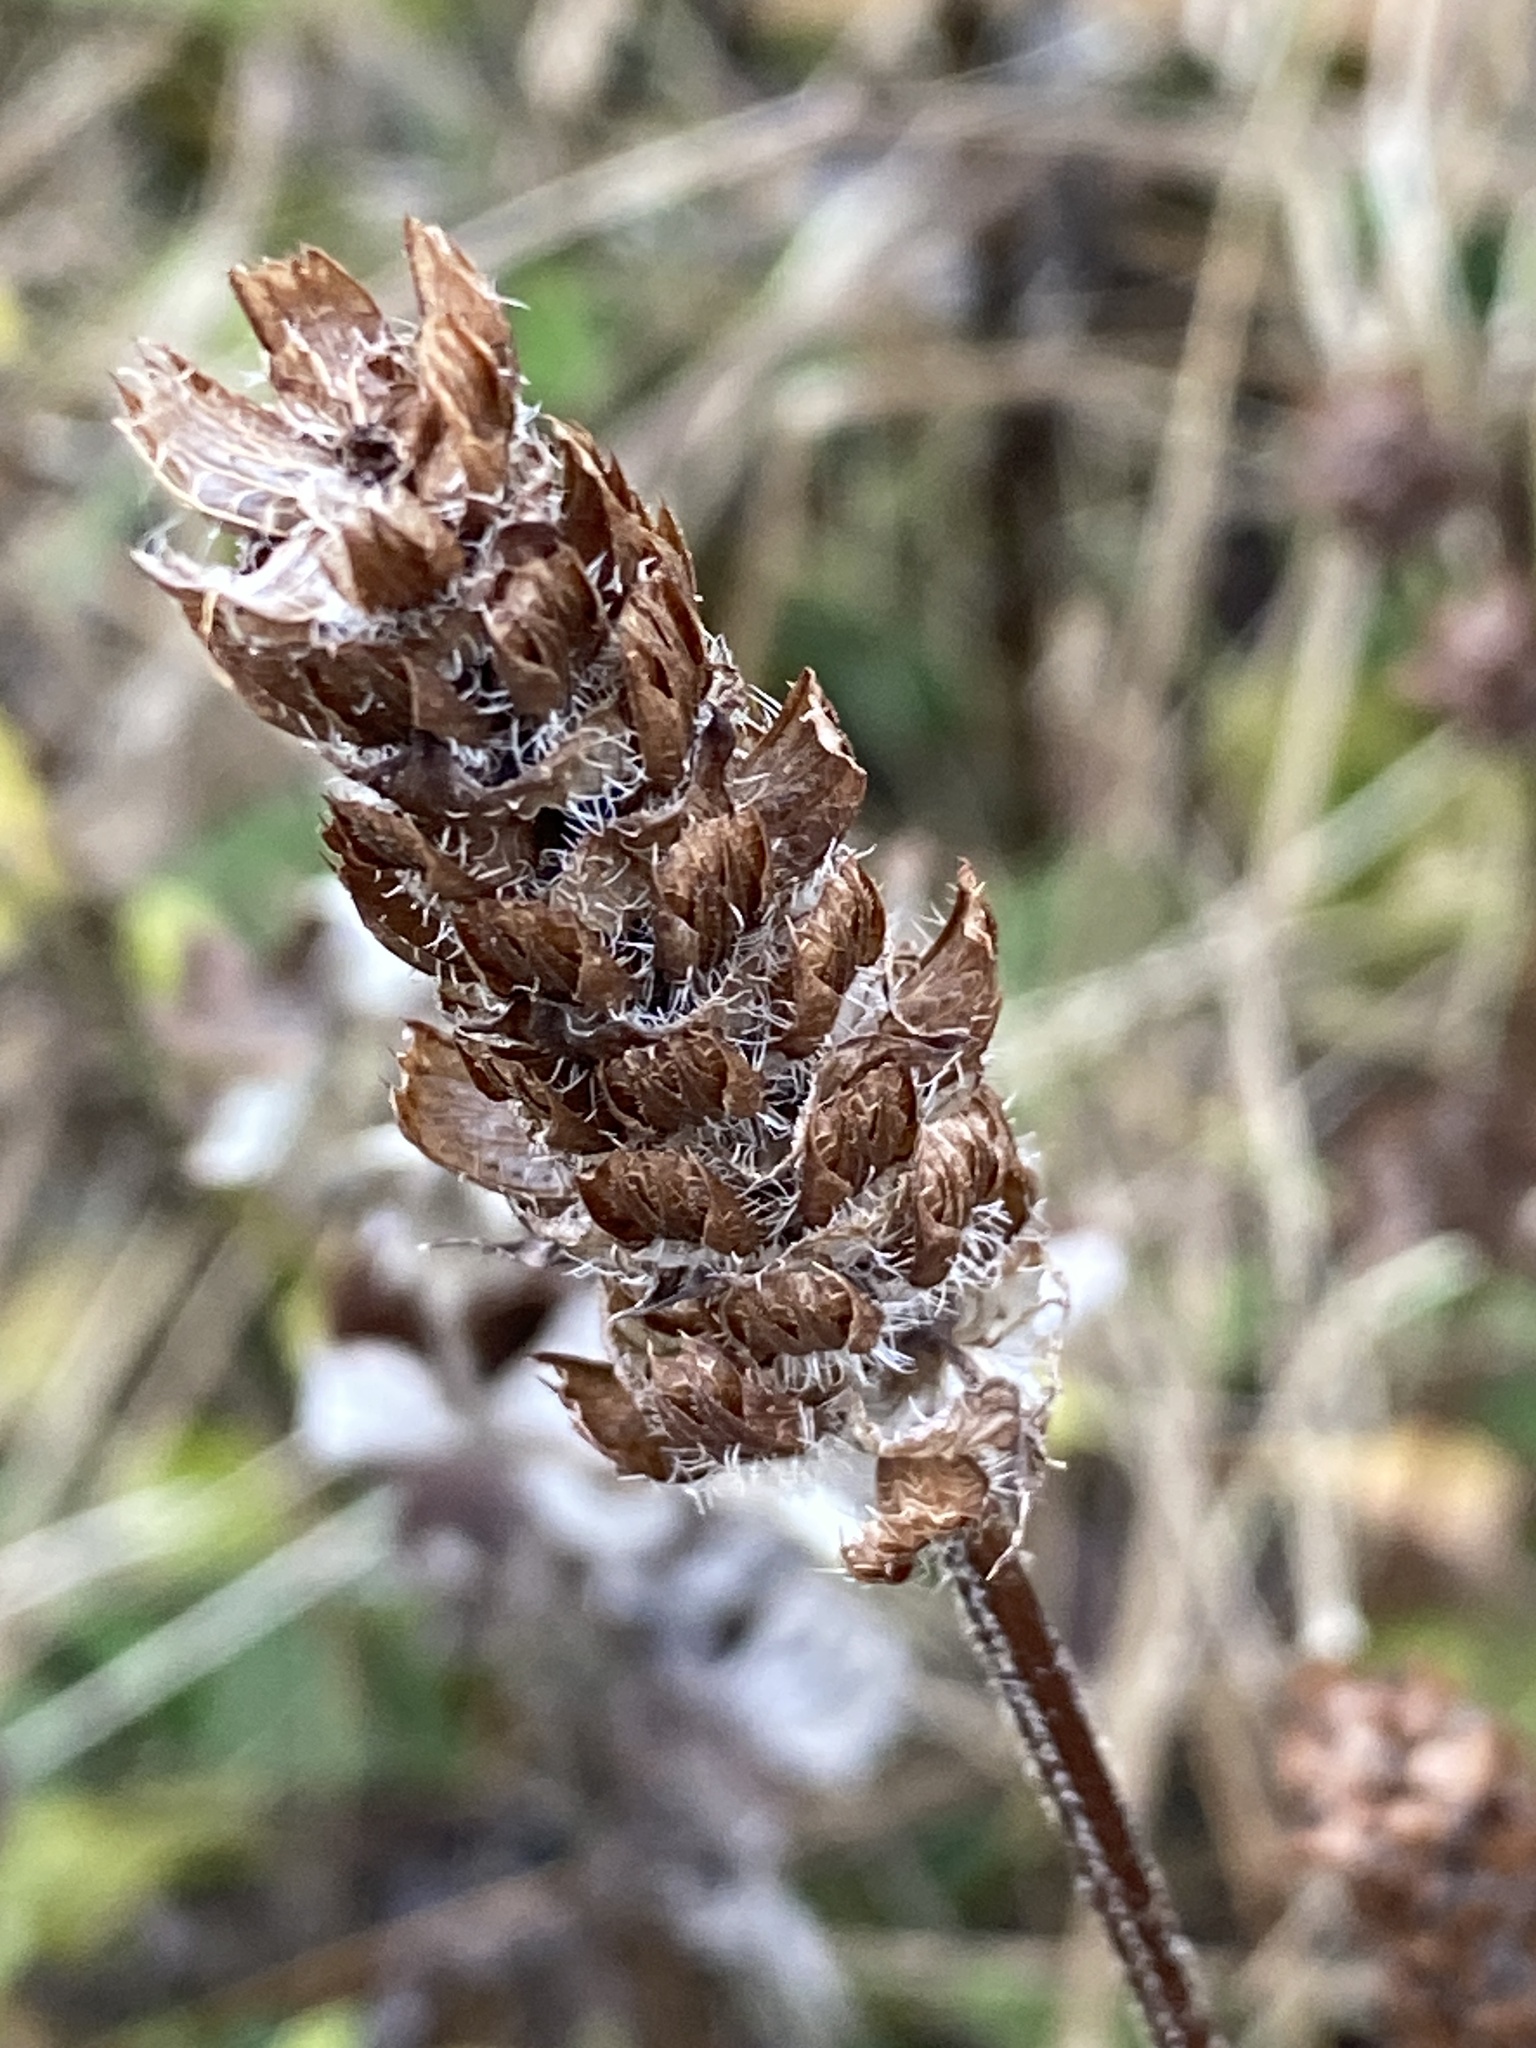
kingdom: Plantae
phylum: Tracheophyta
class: Magnoliopsida
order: Lamiales
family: Lamiaceae
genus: Prunella
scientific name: Prunella vulgaris
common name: Heal-all
